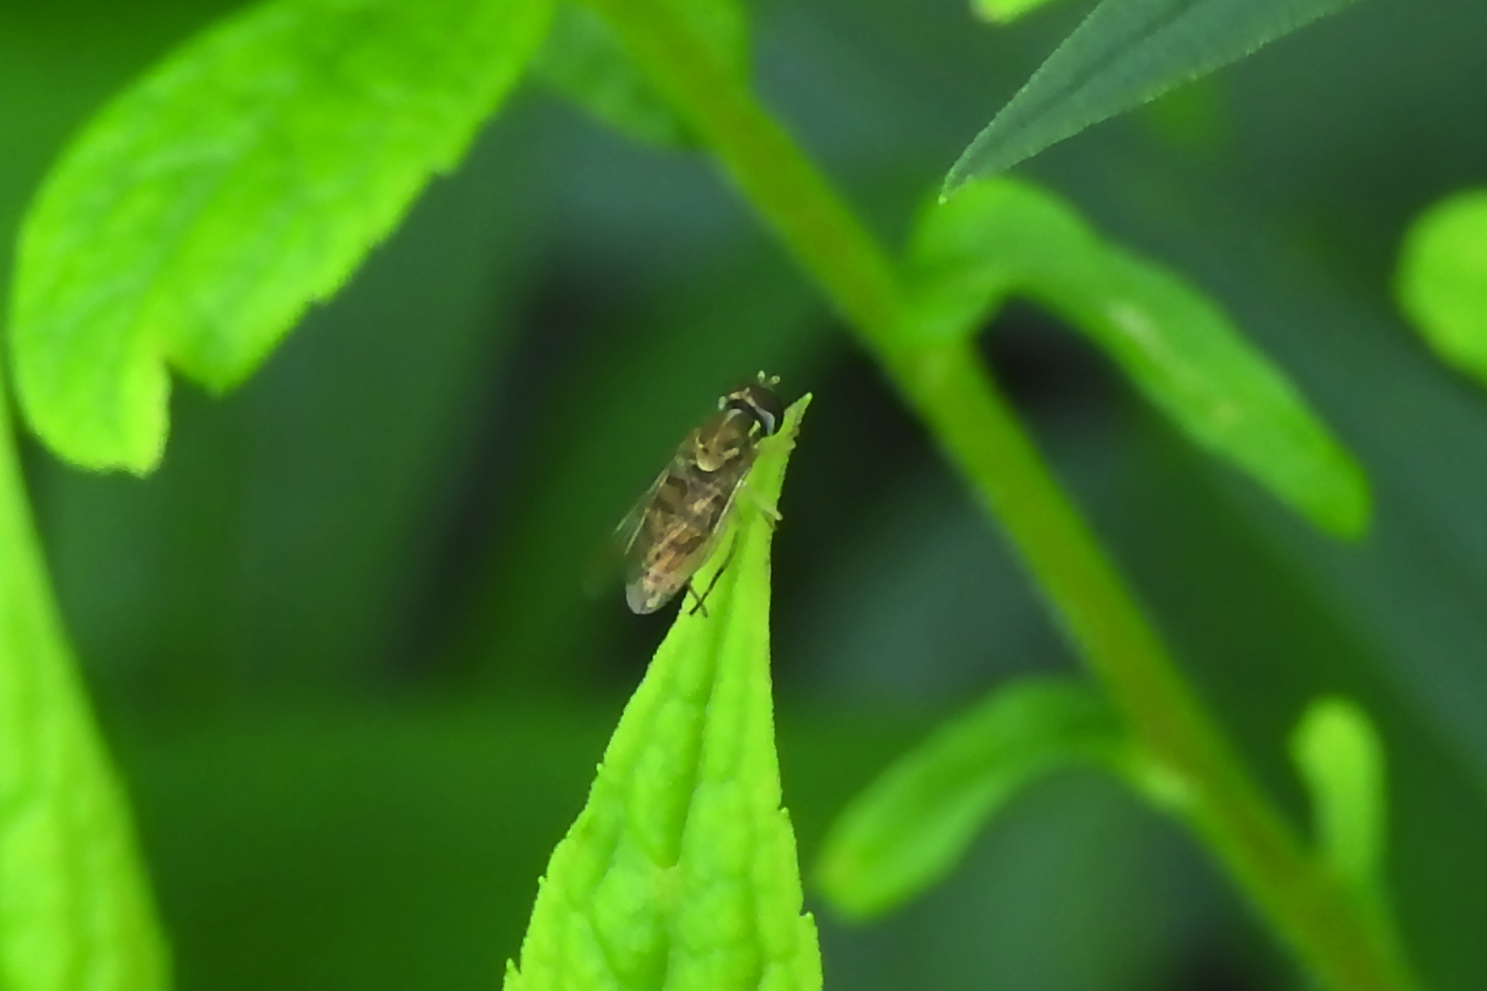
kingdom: Animalia
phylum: Arthropoda
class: Insecta
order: Diptera
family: Syrphidae
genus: Toxomerus
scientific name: Toxomerus marginatus
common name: Syrphid fly
